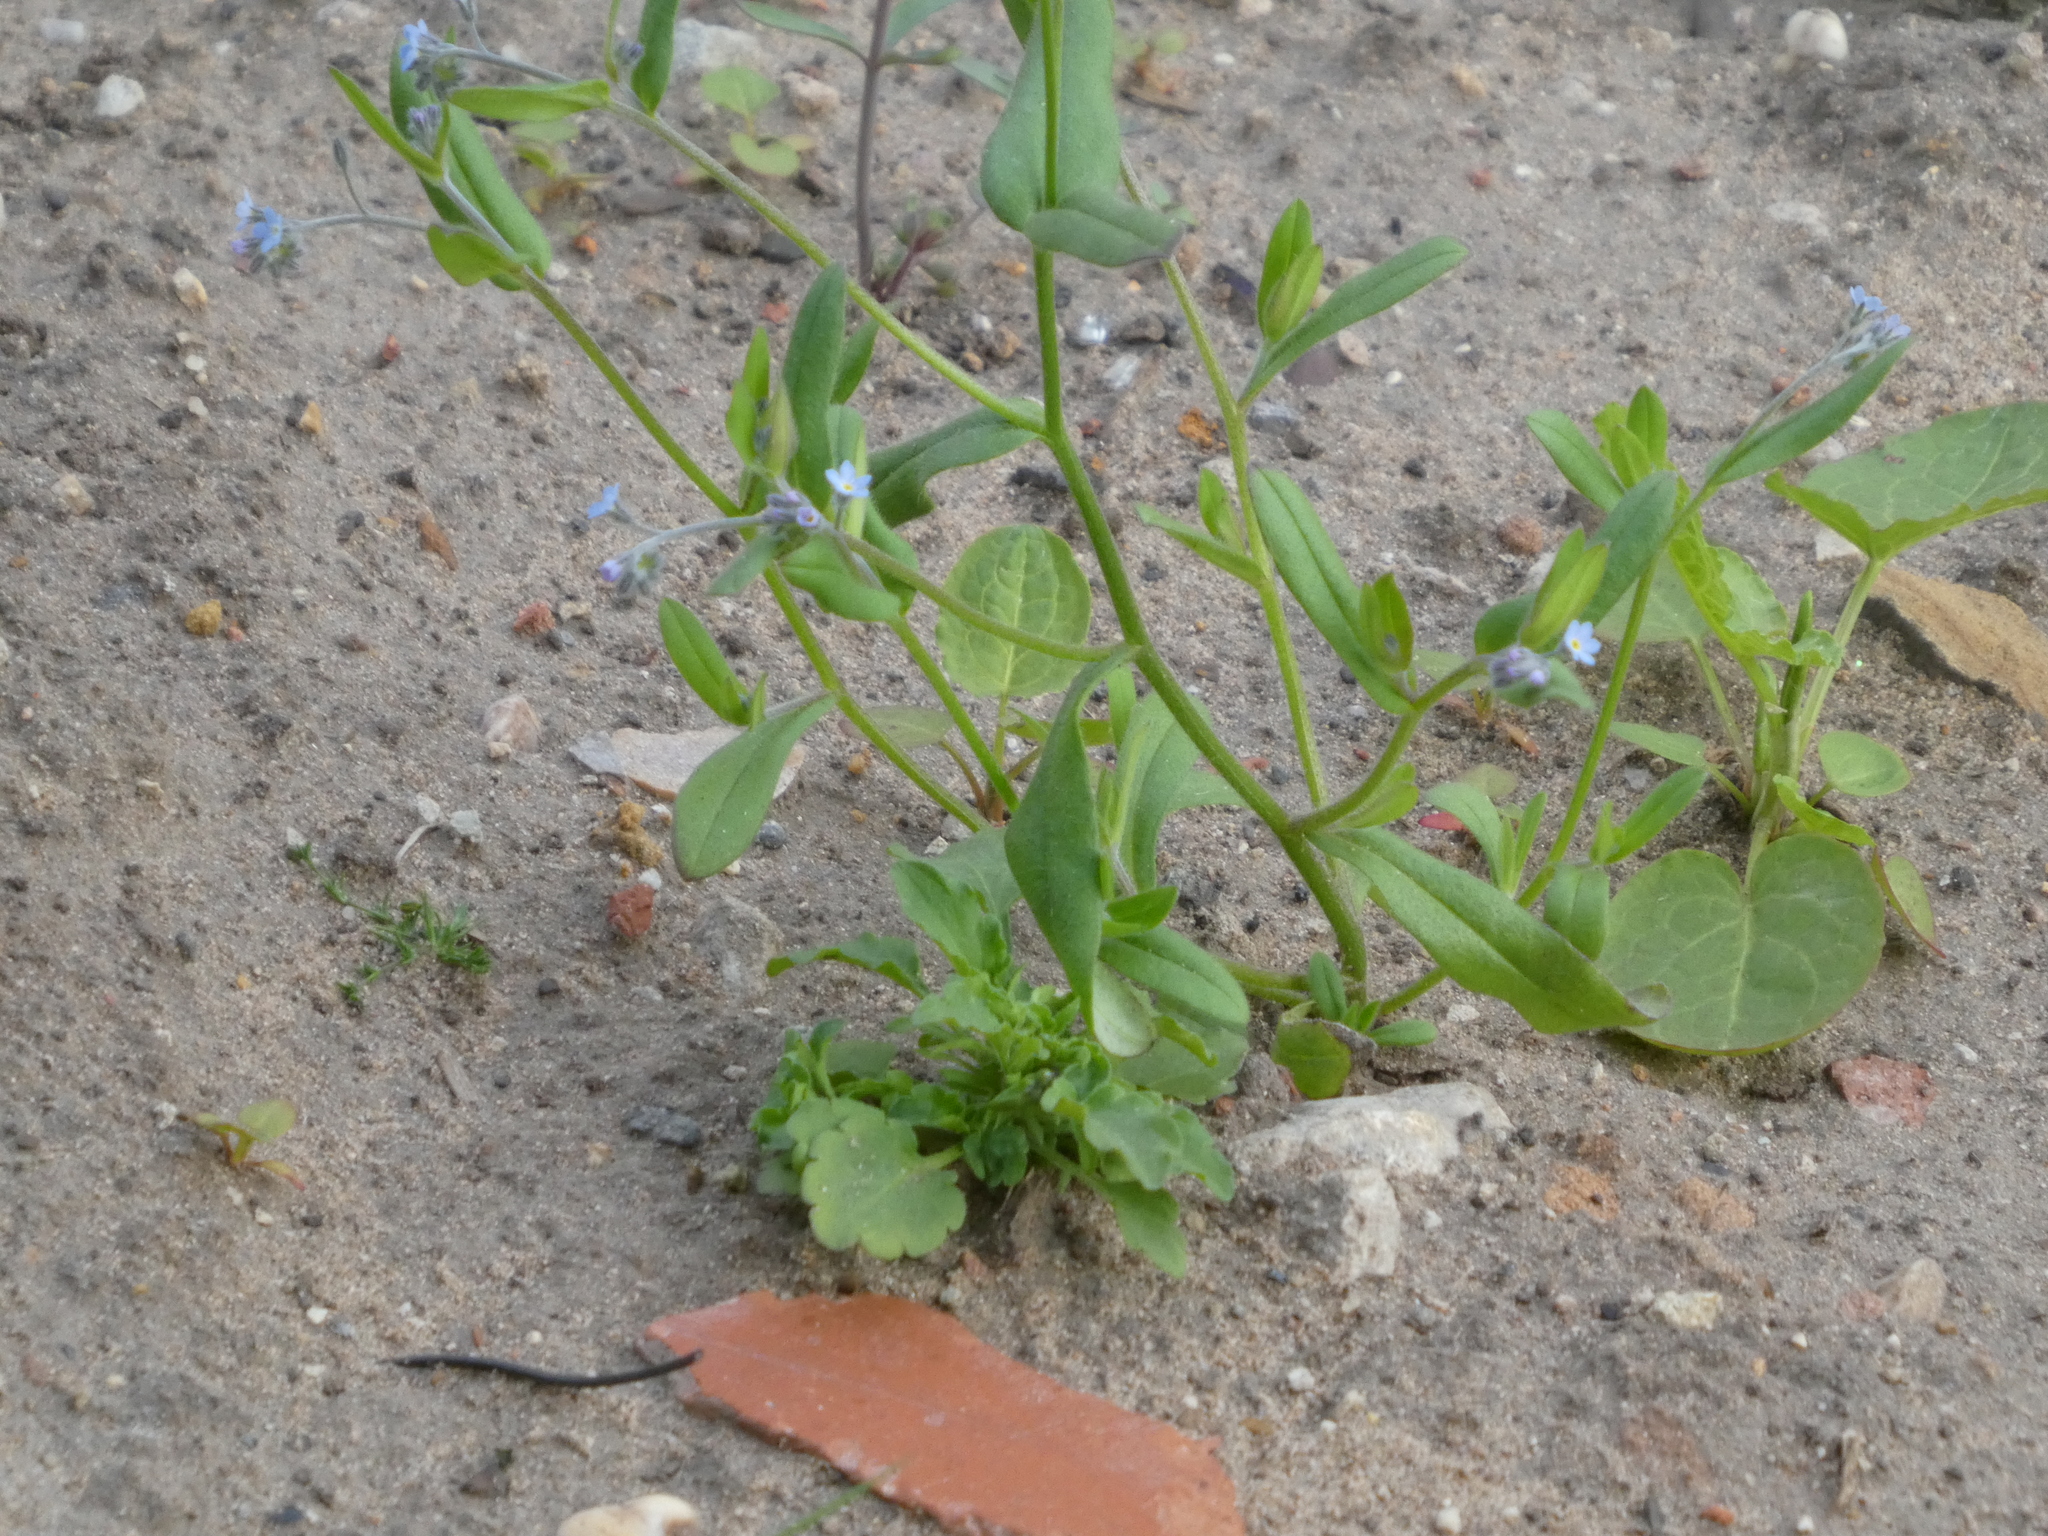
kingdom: Plantae
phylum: Tracheophyta
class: Magnoliopsida
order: Boraginales
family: Boraginaceae
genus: Myosotis
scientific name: Myosotis arvensis
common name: Field forget-me-not
